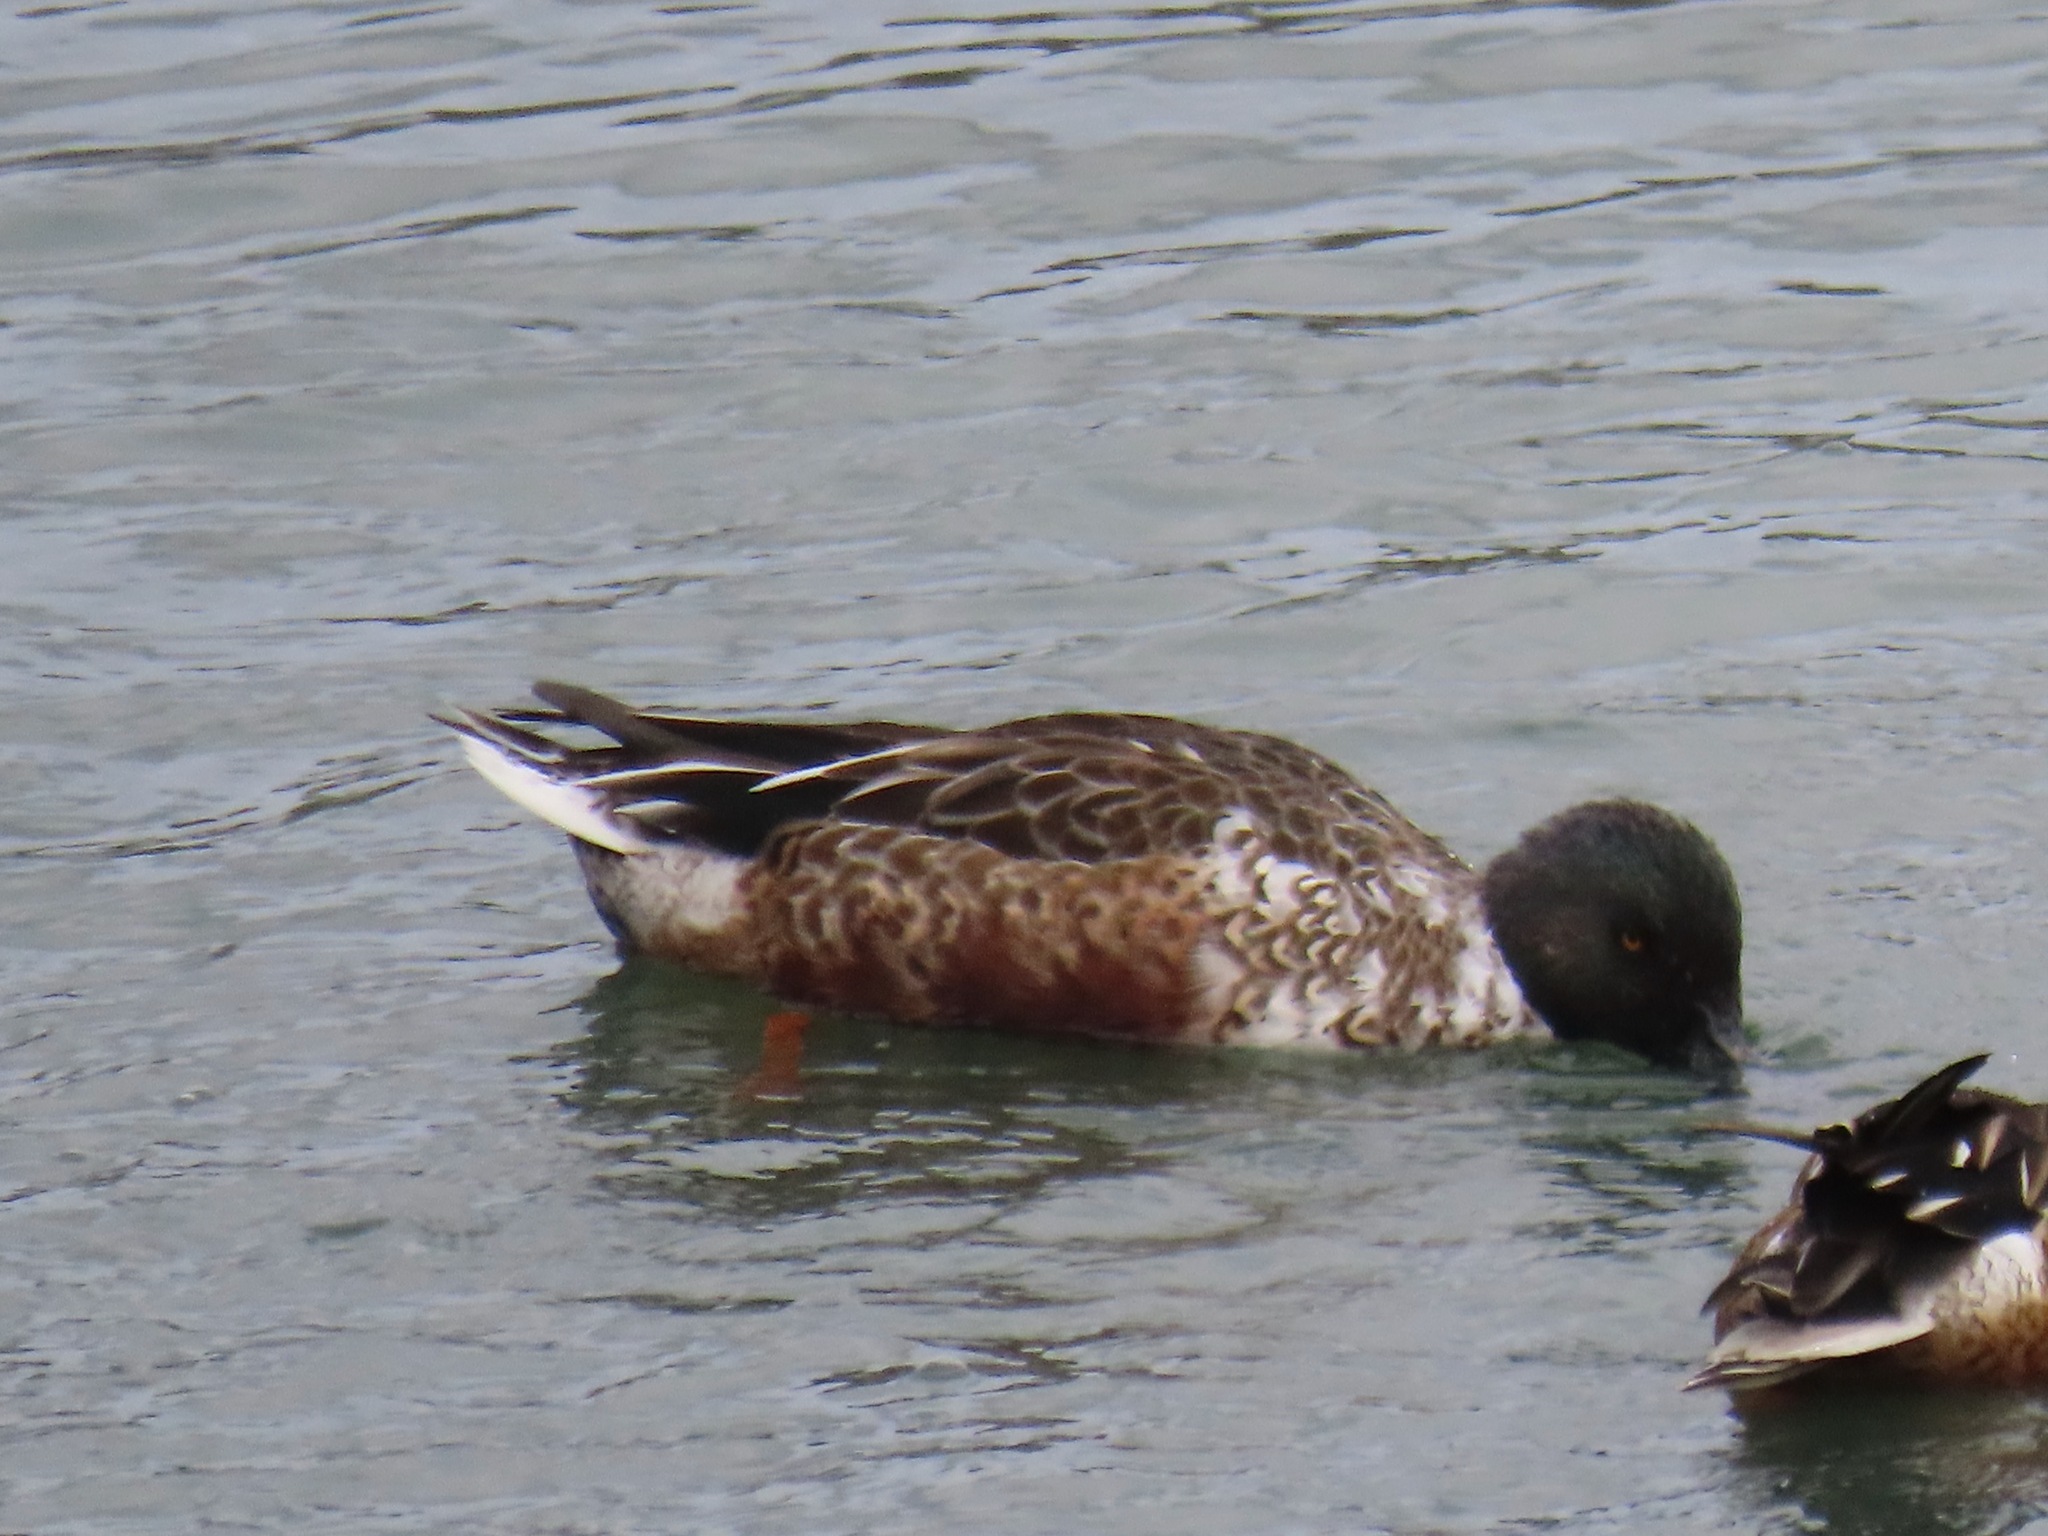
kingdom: Animalia
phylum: Chordata
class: Aves
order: Anseriformes
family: Anatidae
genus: Spatula
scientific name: Spatula clypeata
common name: Northern shoveler
